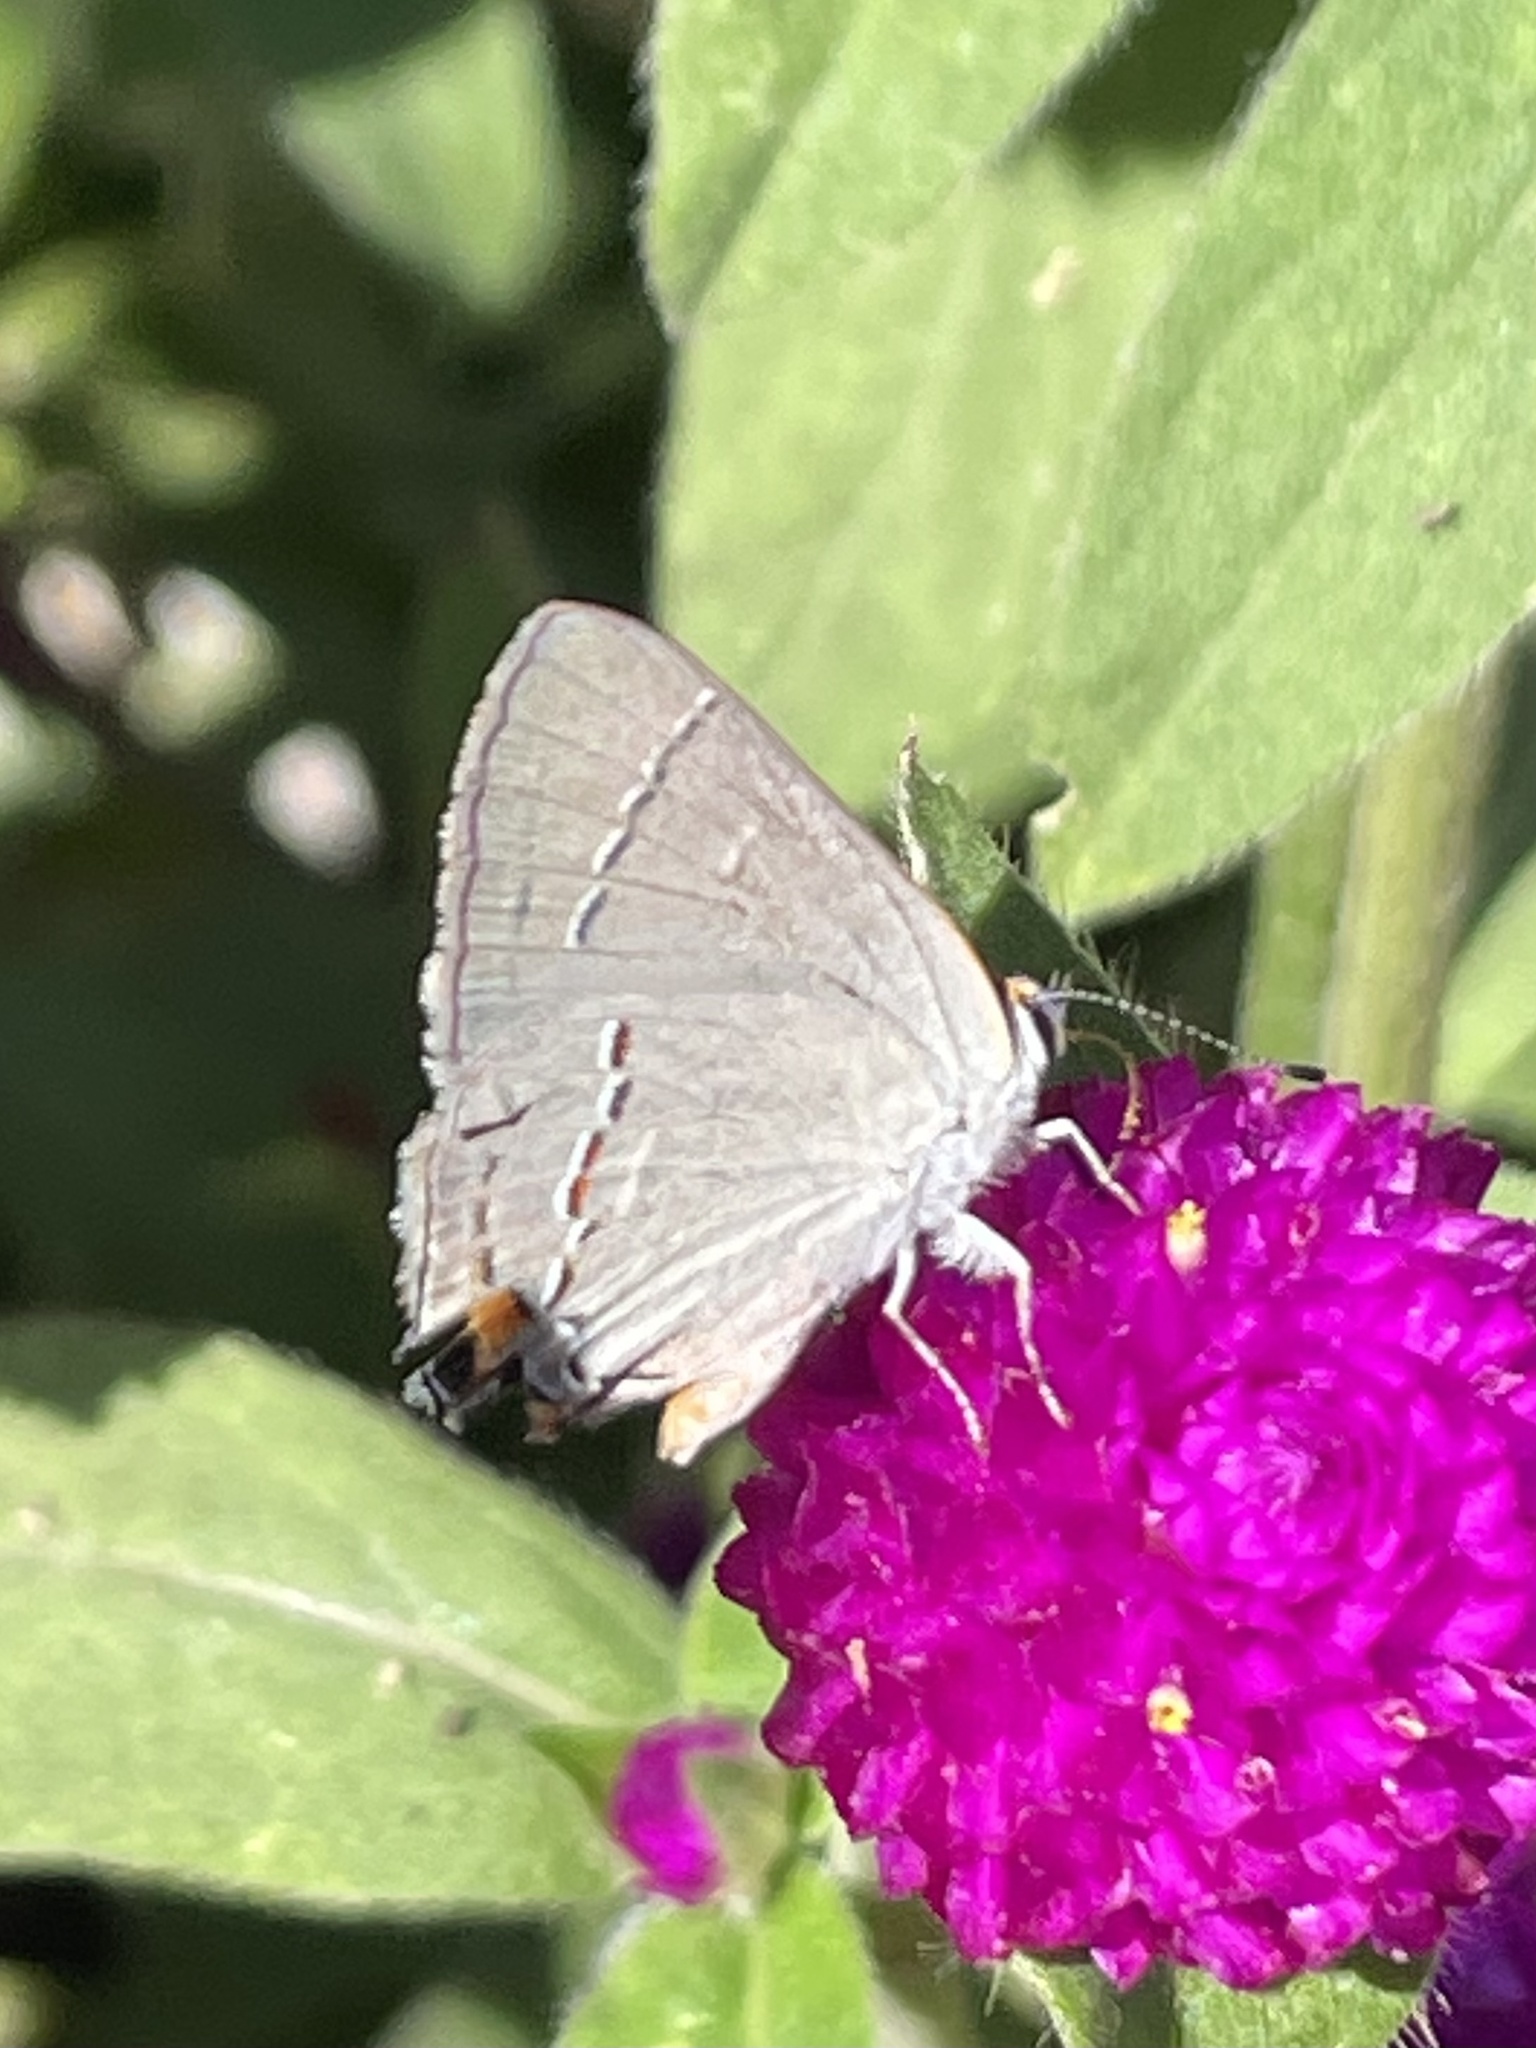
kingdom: Animalia
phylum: Arthropoda
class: Insecta
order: Lepidoptera
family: Lycaenidae
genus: Strymon
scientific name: Strymon melinus
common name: Gray hairstreak
